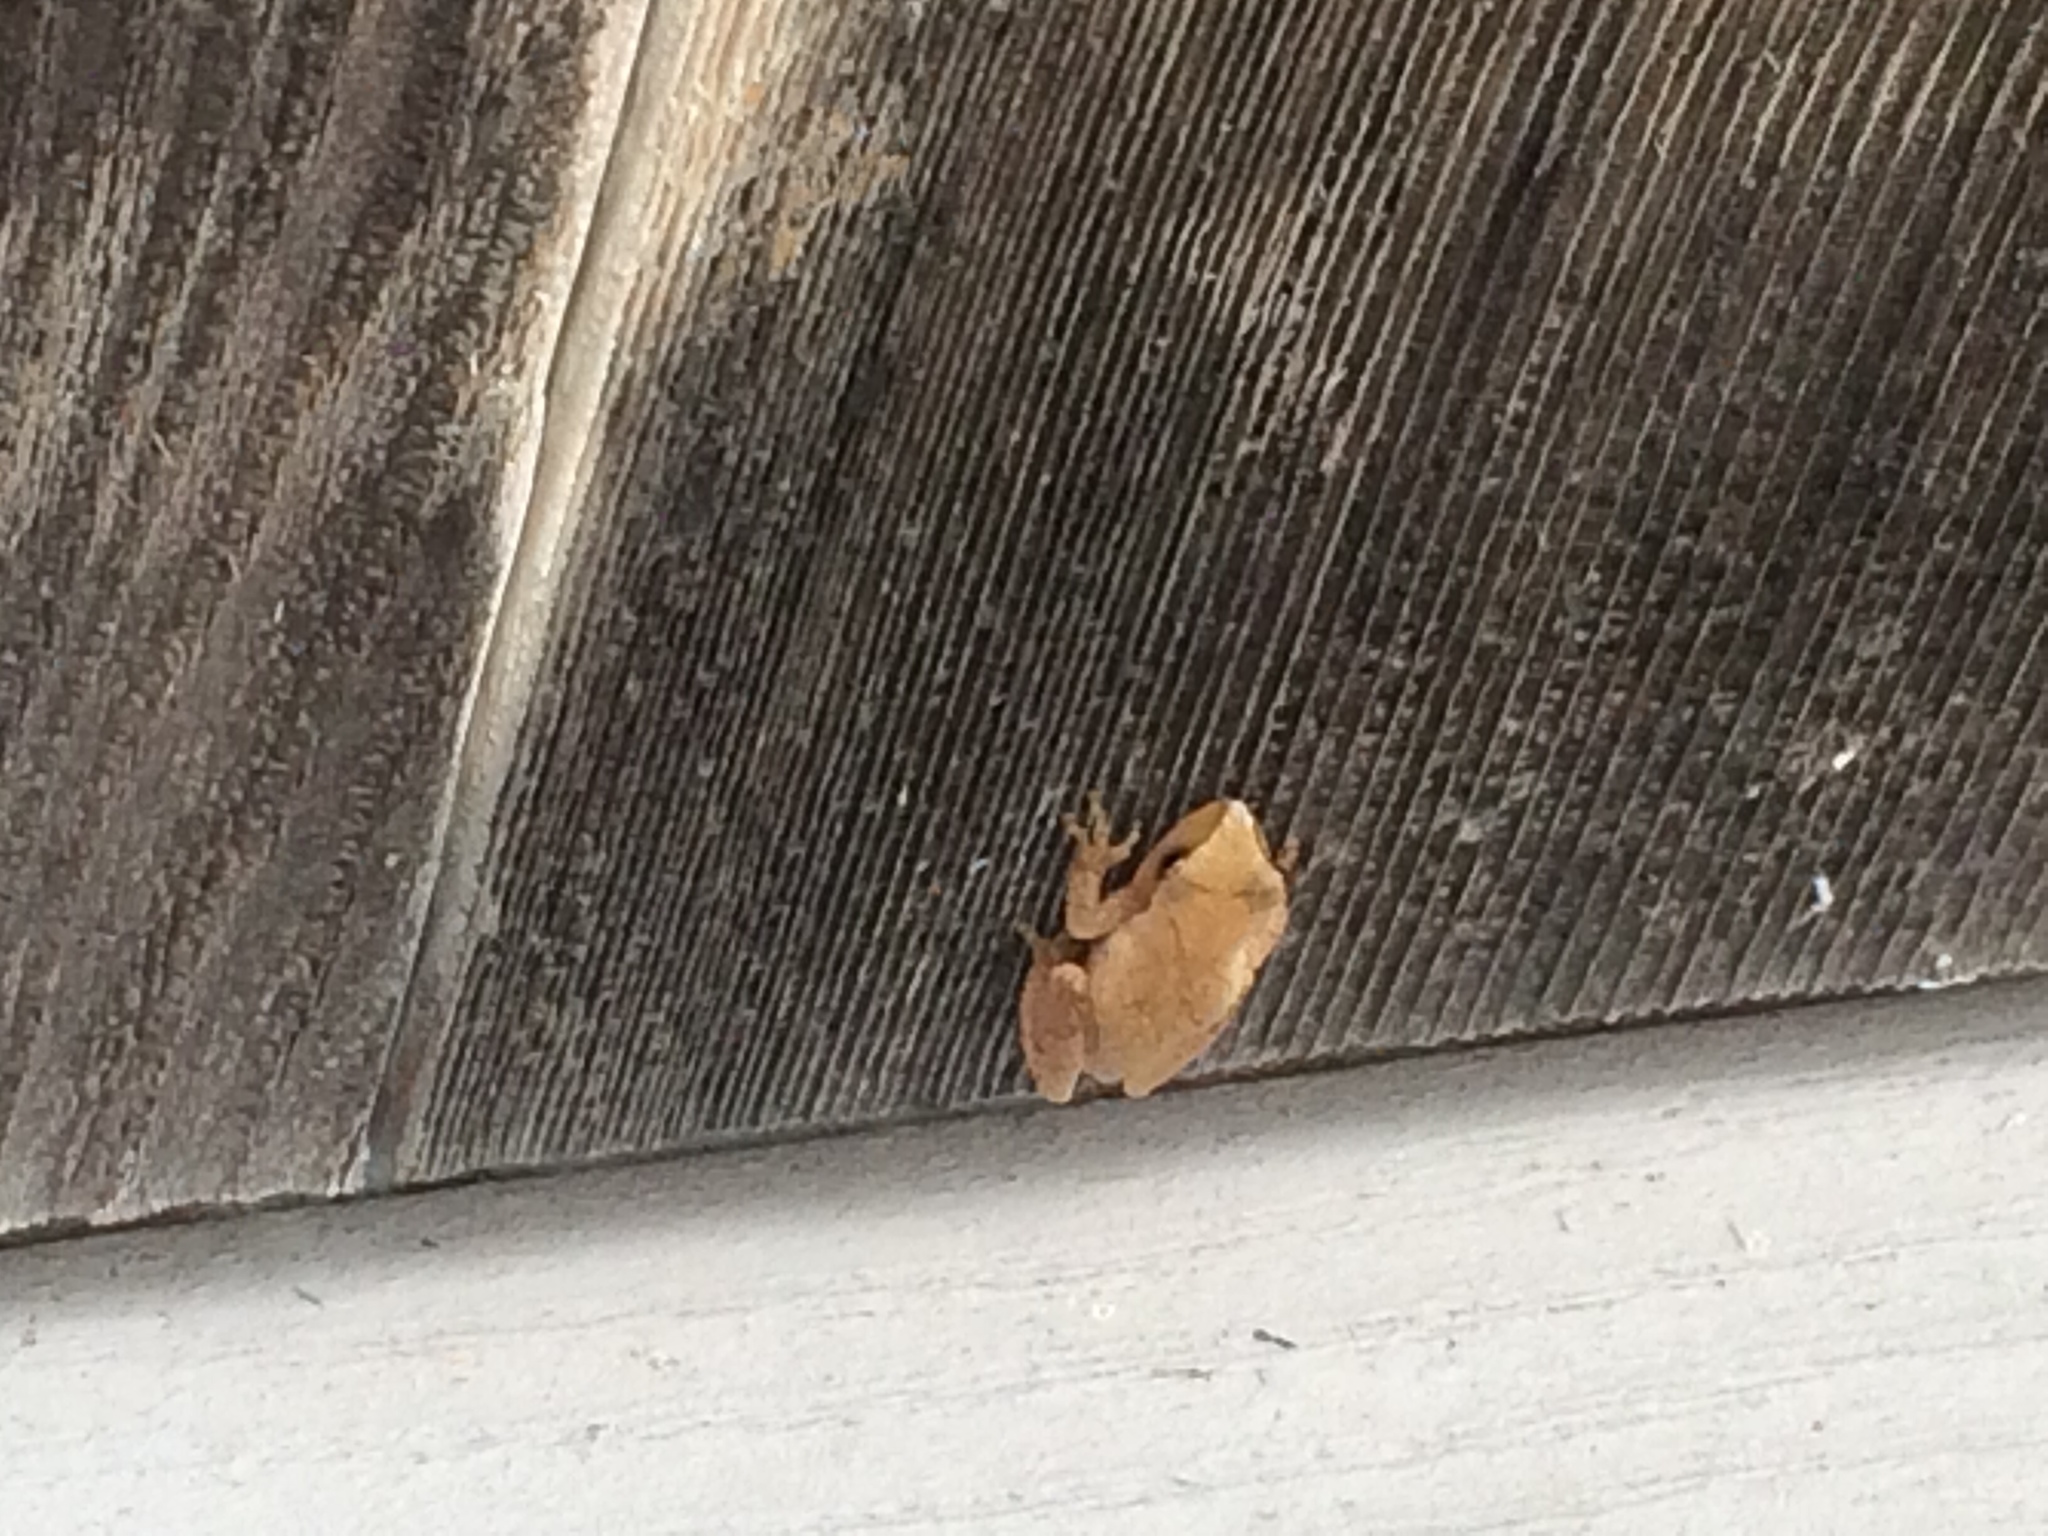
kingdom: Animalia
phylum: Chordata
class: Amphibia
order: Anura
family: Hylidae
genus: Pseudacris
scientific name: Pseudacris crucifer
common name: Spring peeper
